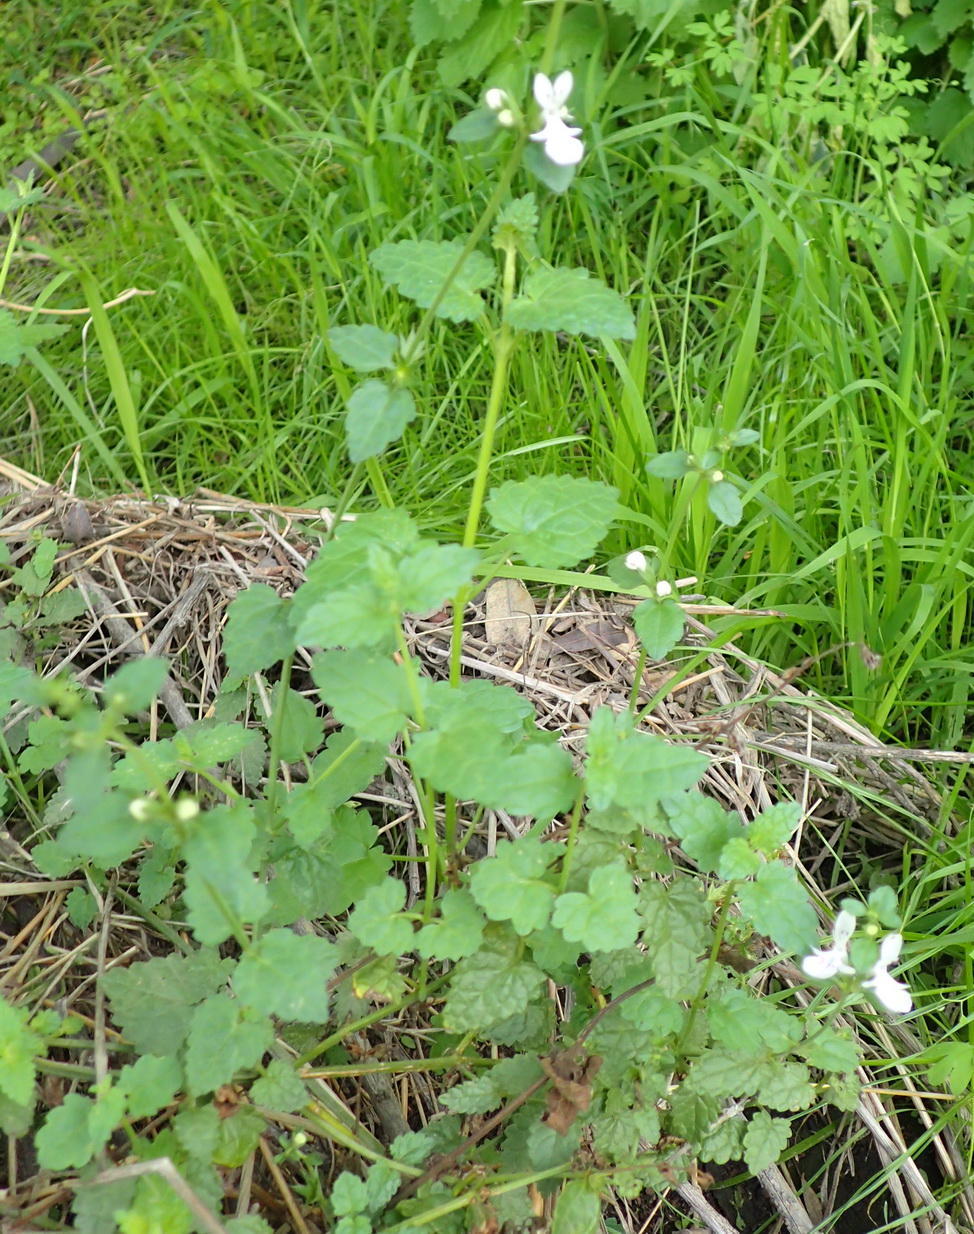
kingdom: Plantae
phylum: Tracheophyta
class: Magnoliopsida
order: Lamiales
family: Lamiaceae
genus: Stachys
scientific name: Stachys aethiopica
